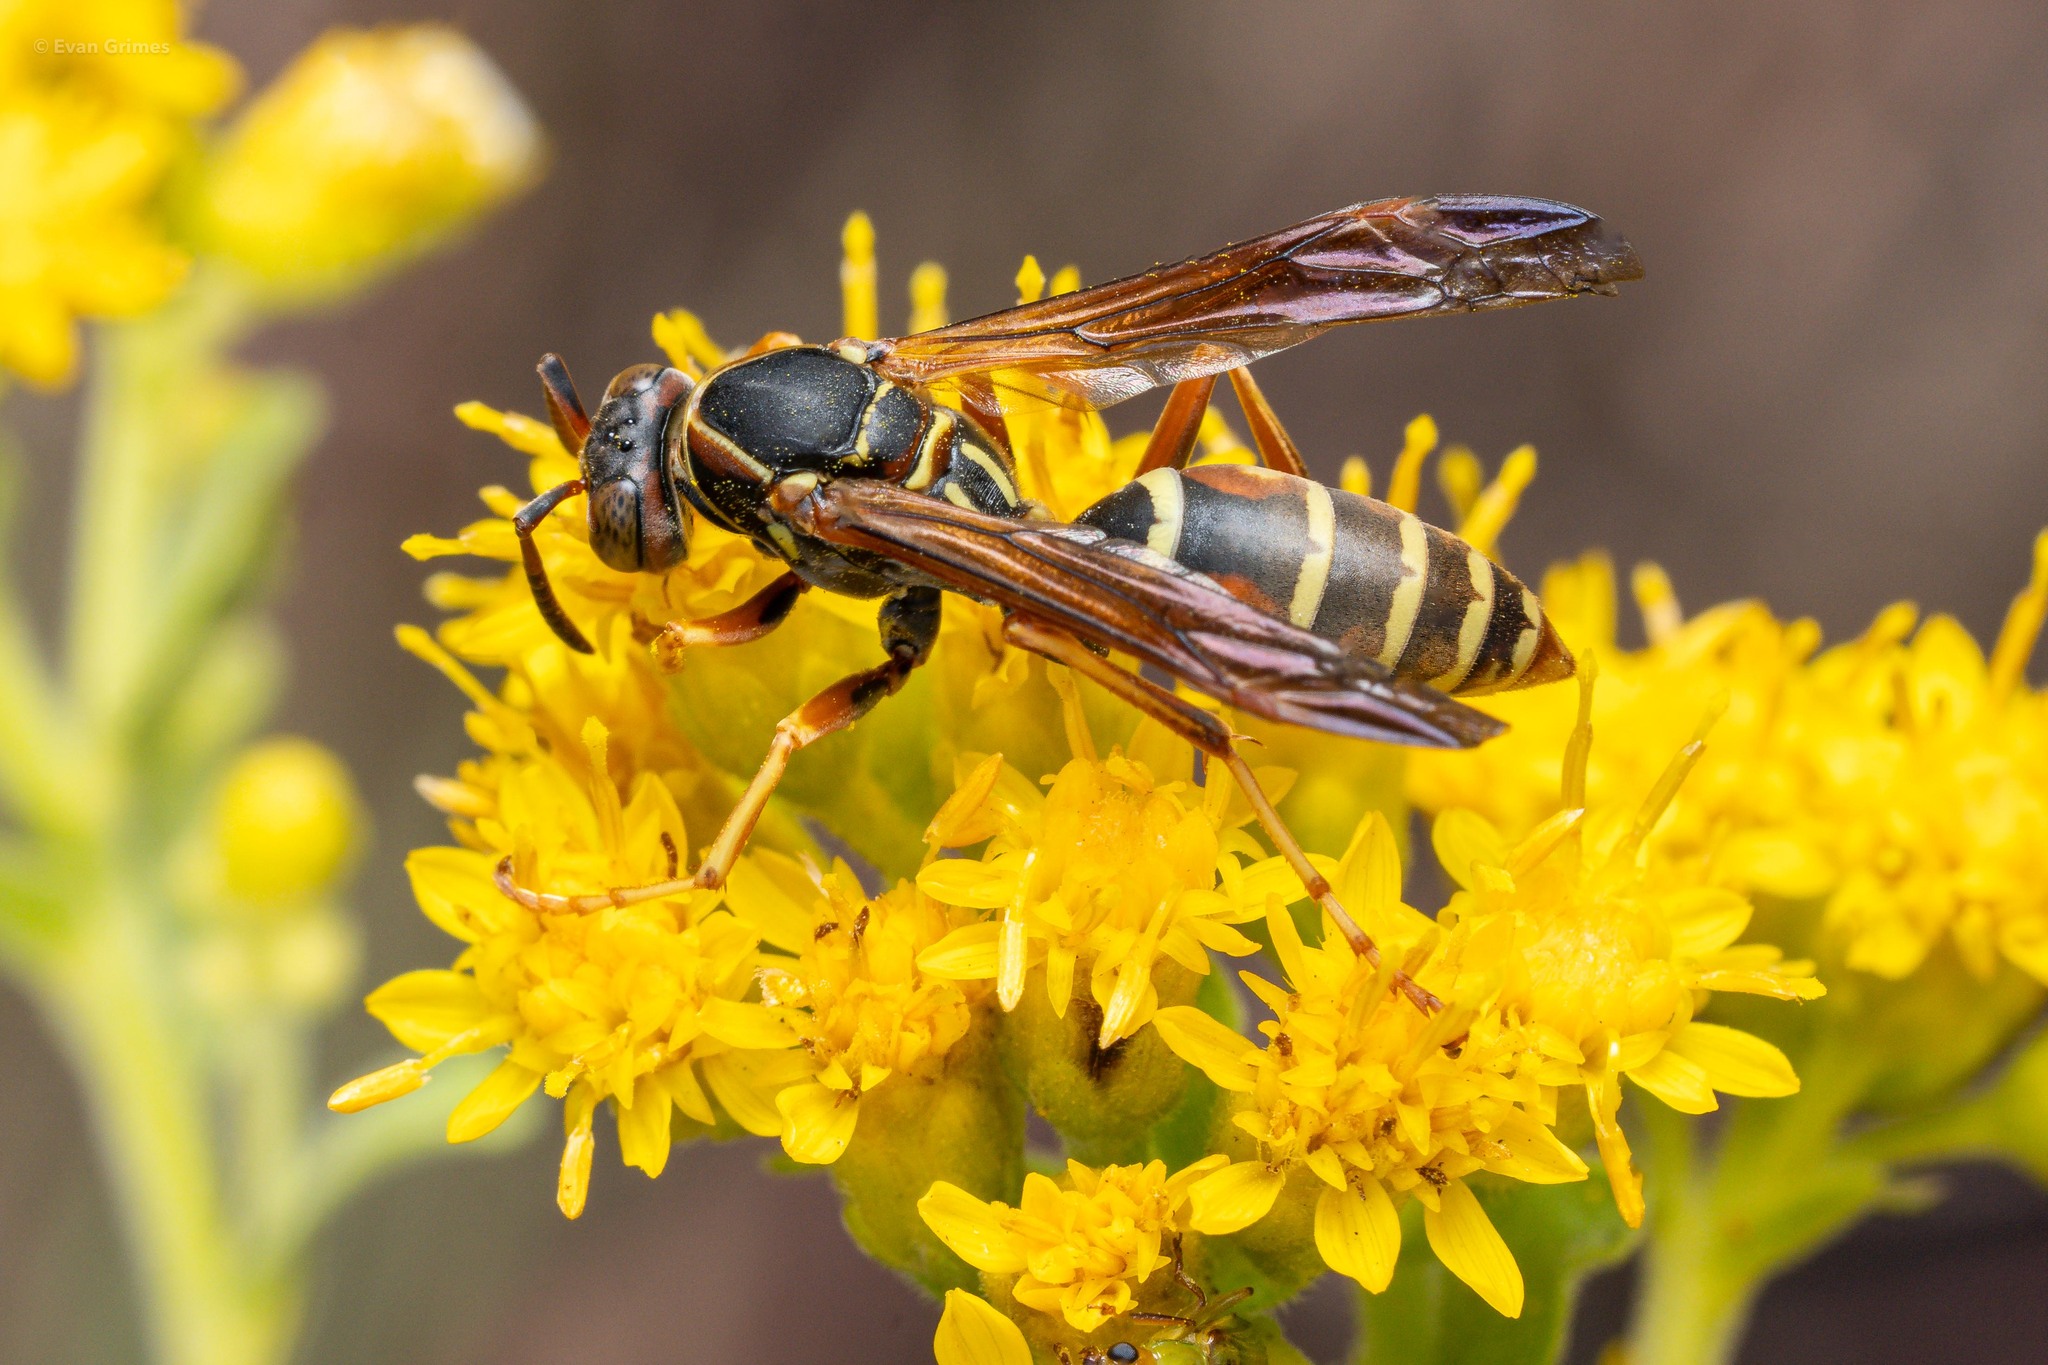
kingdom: Animalia
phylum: Arthropoda
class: Insecta
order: Hymenoptera
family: Eumenidae
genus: Polistes
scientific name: Polistes fuscatus
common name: Dark paper wasp
